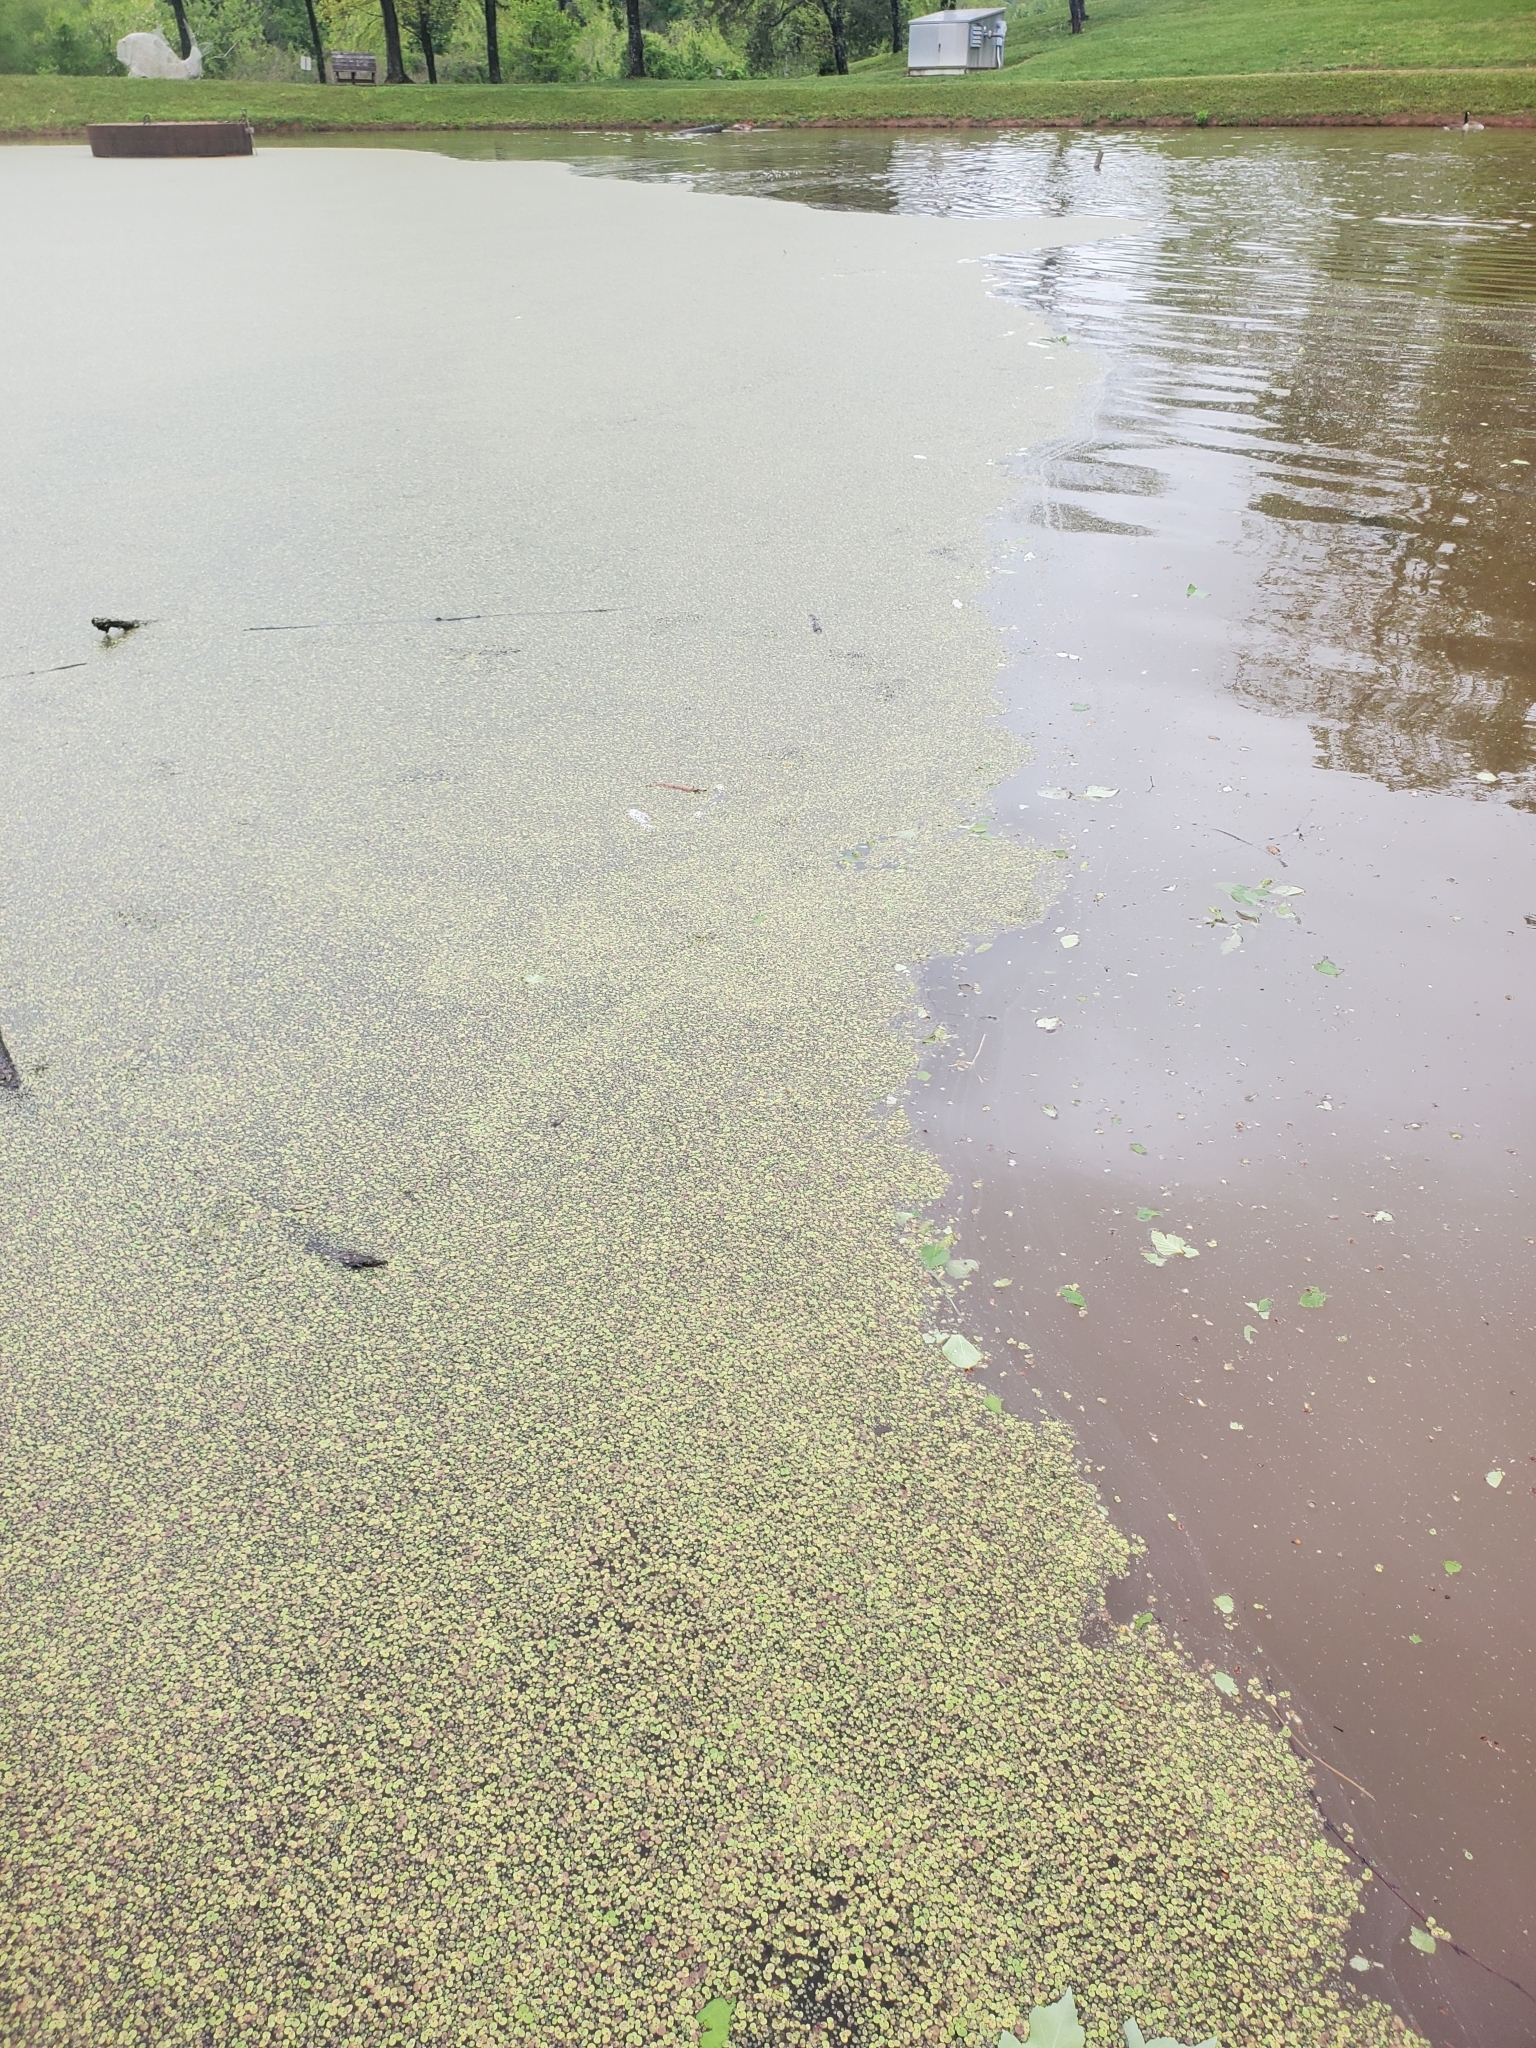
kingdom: Plantae
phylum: Tracheophyta
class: Liliopsida
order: Alismatales
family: Araceae
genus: Spirodela
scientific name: Spirodela polyrhiza
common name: Great duckweed
